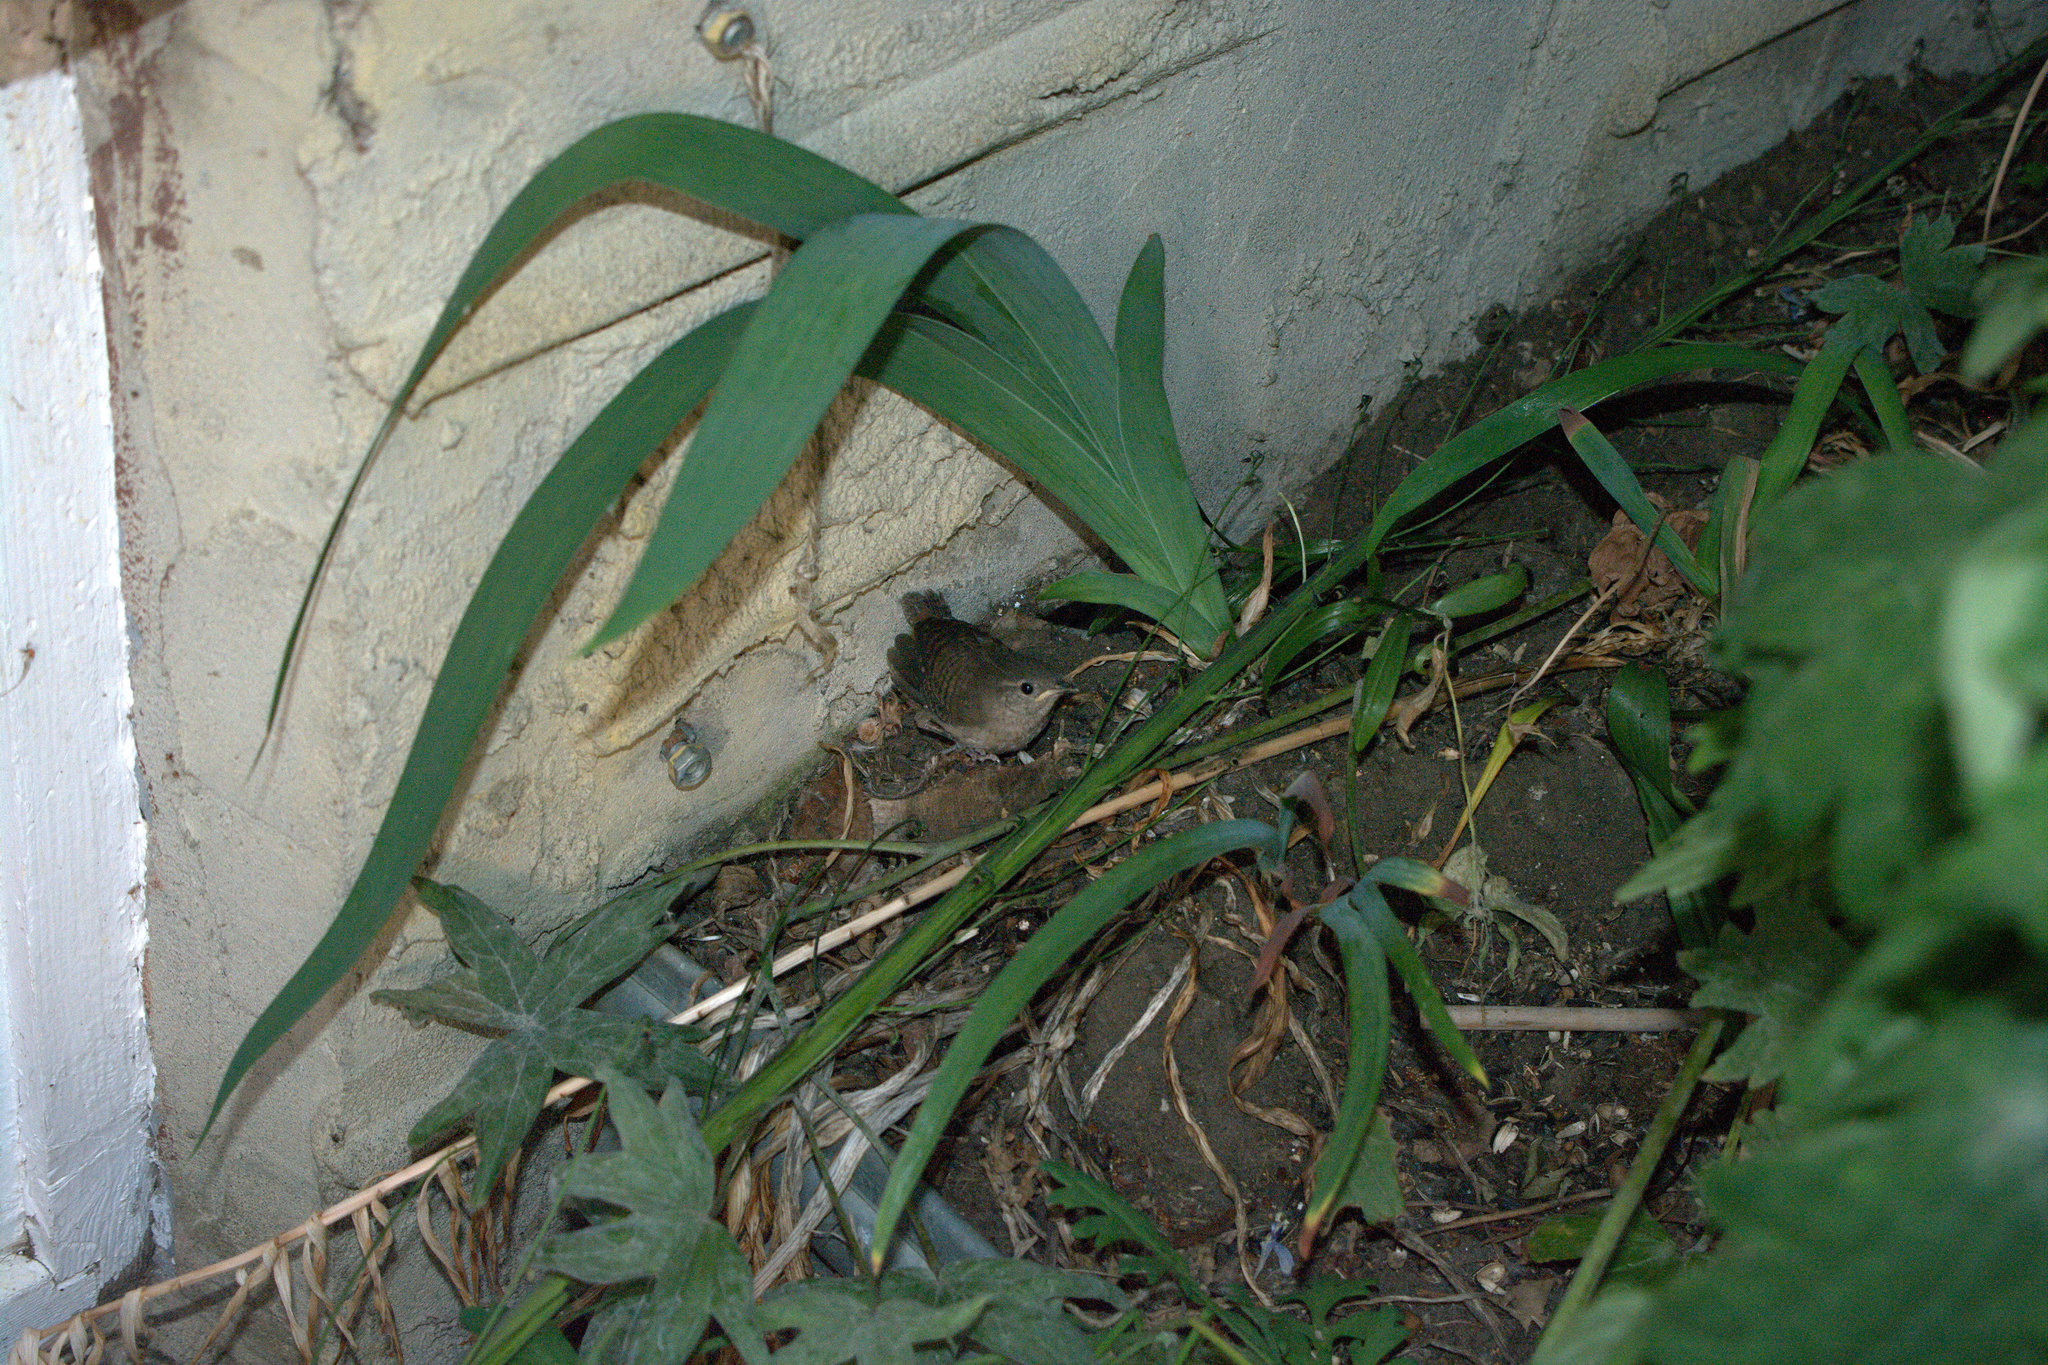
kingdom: Animalia
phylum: Chordata
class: Aves
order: Passeriformes
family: Troglodytidae
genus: Troglodytes
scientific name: Troglodytes aedon
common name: House wren
